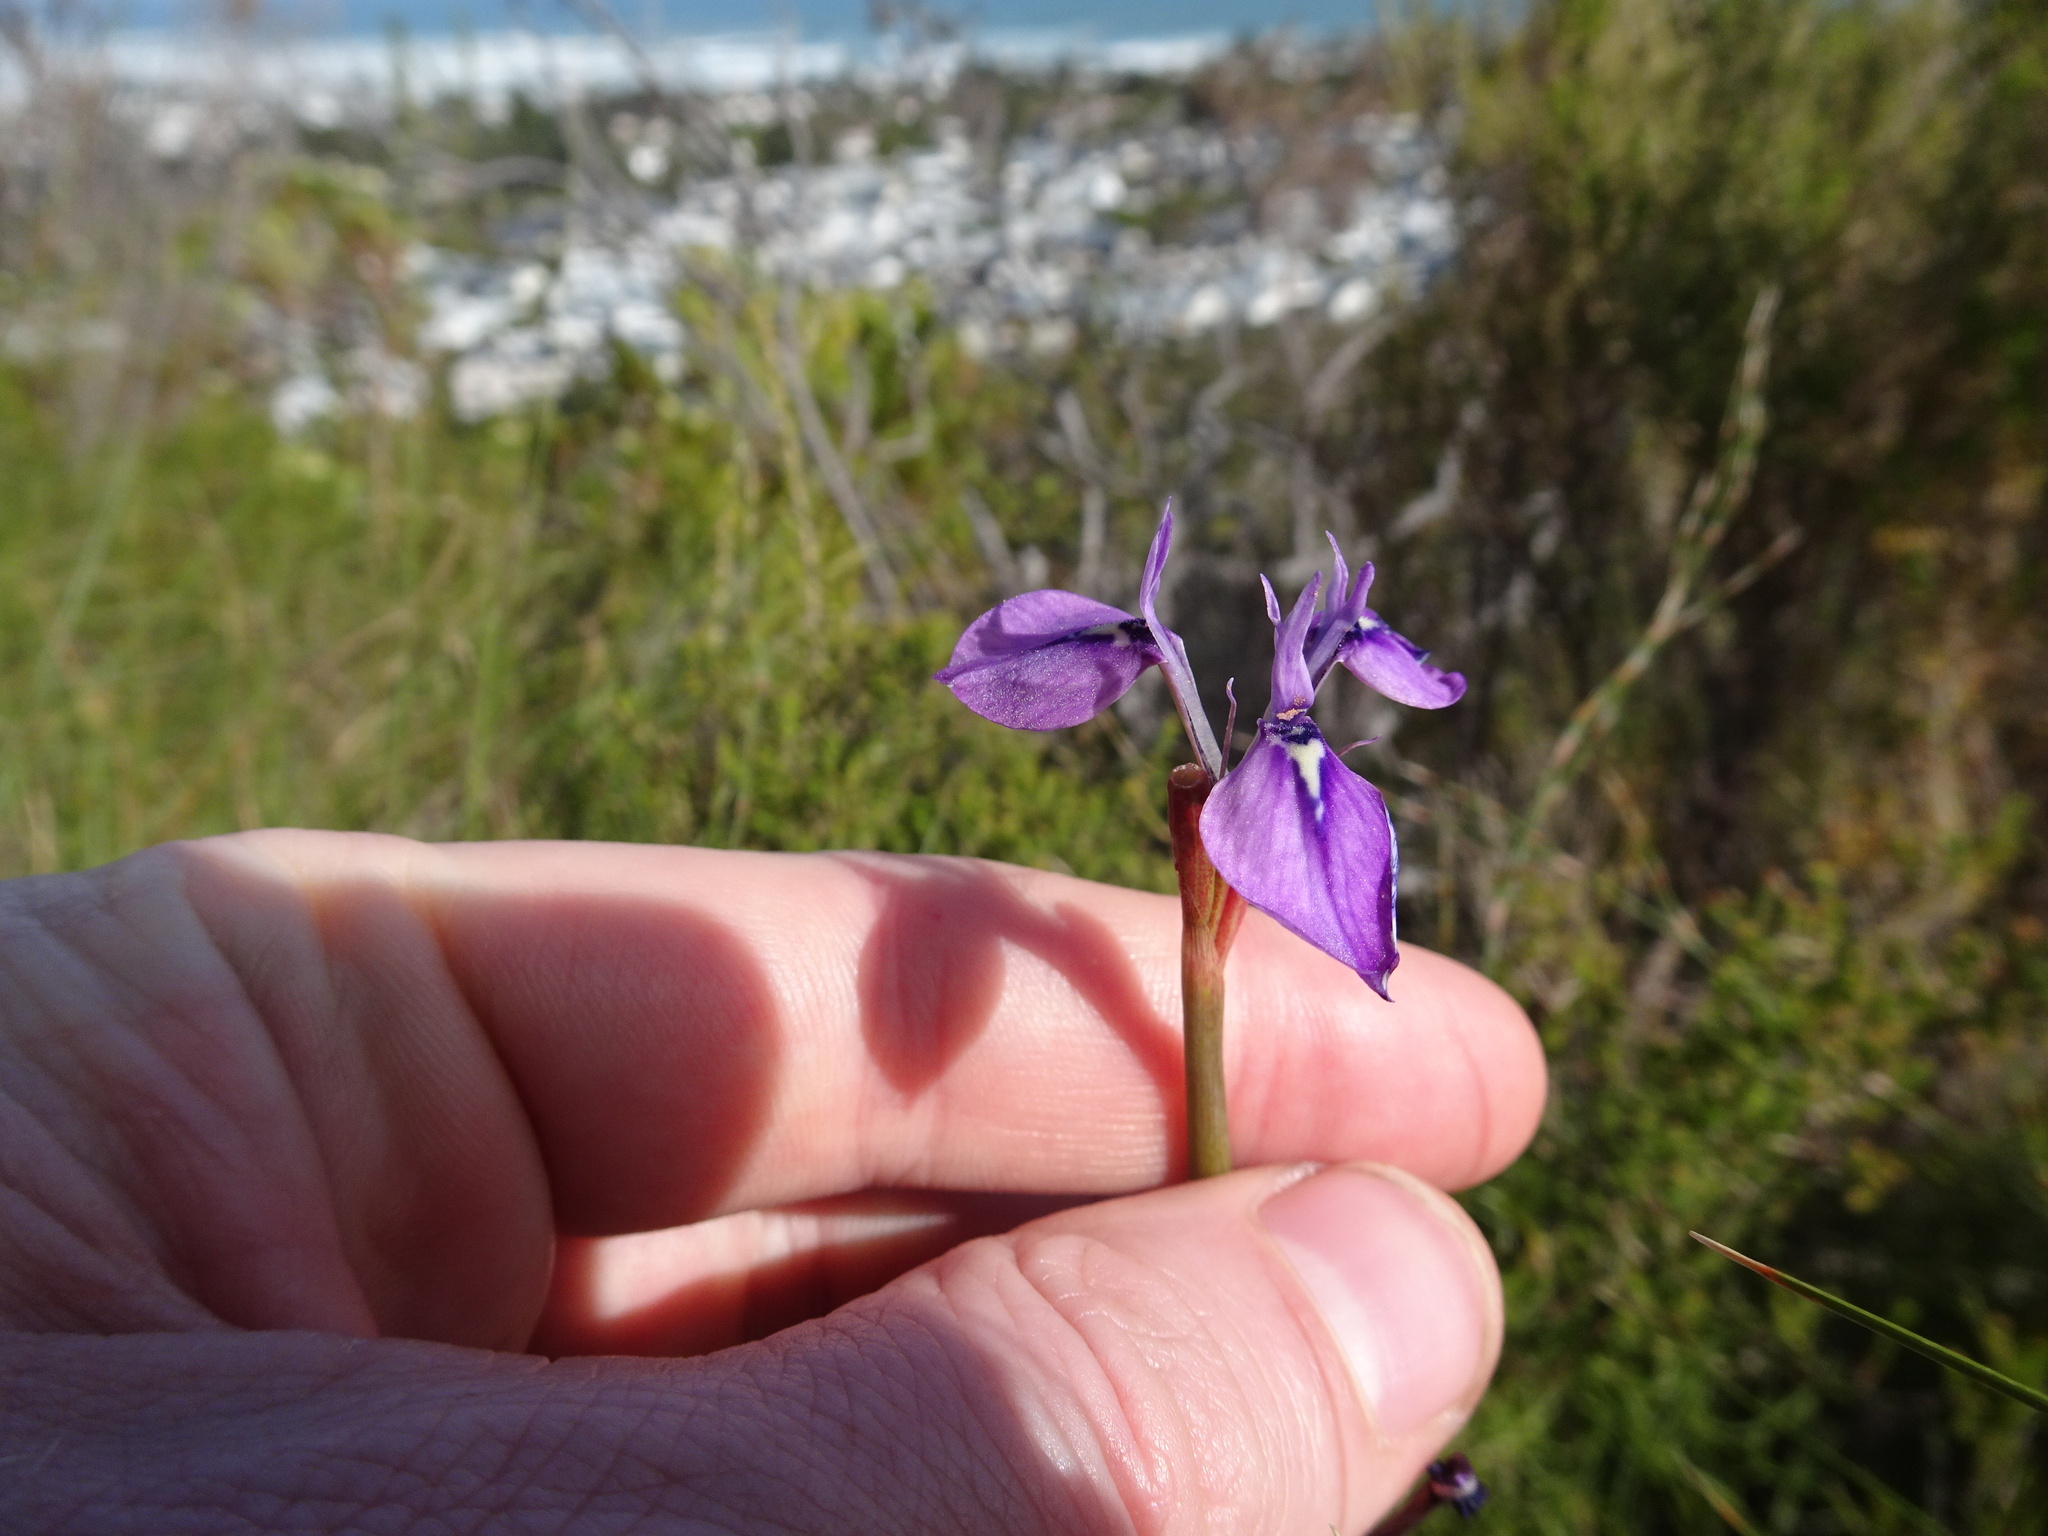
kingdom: Plantae
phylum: Tracheophyta
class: Liliopsida
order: Asparagales
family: Iridaceae
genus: Moraea
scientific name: Moraea tripetala
